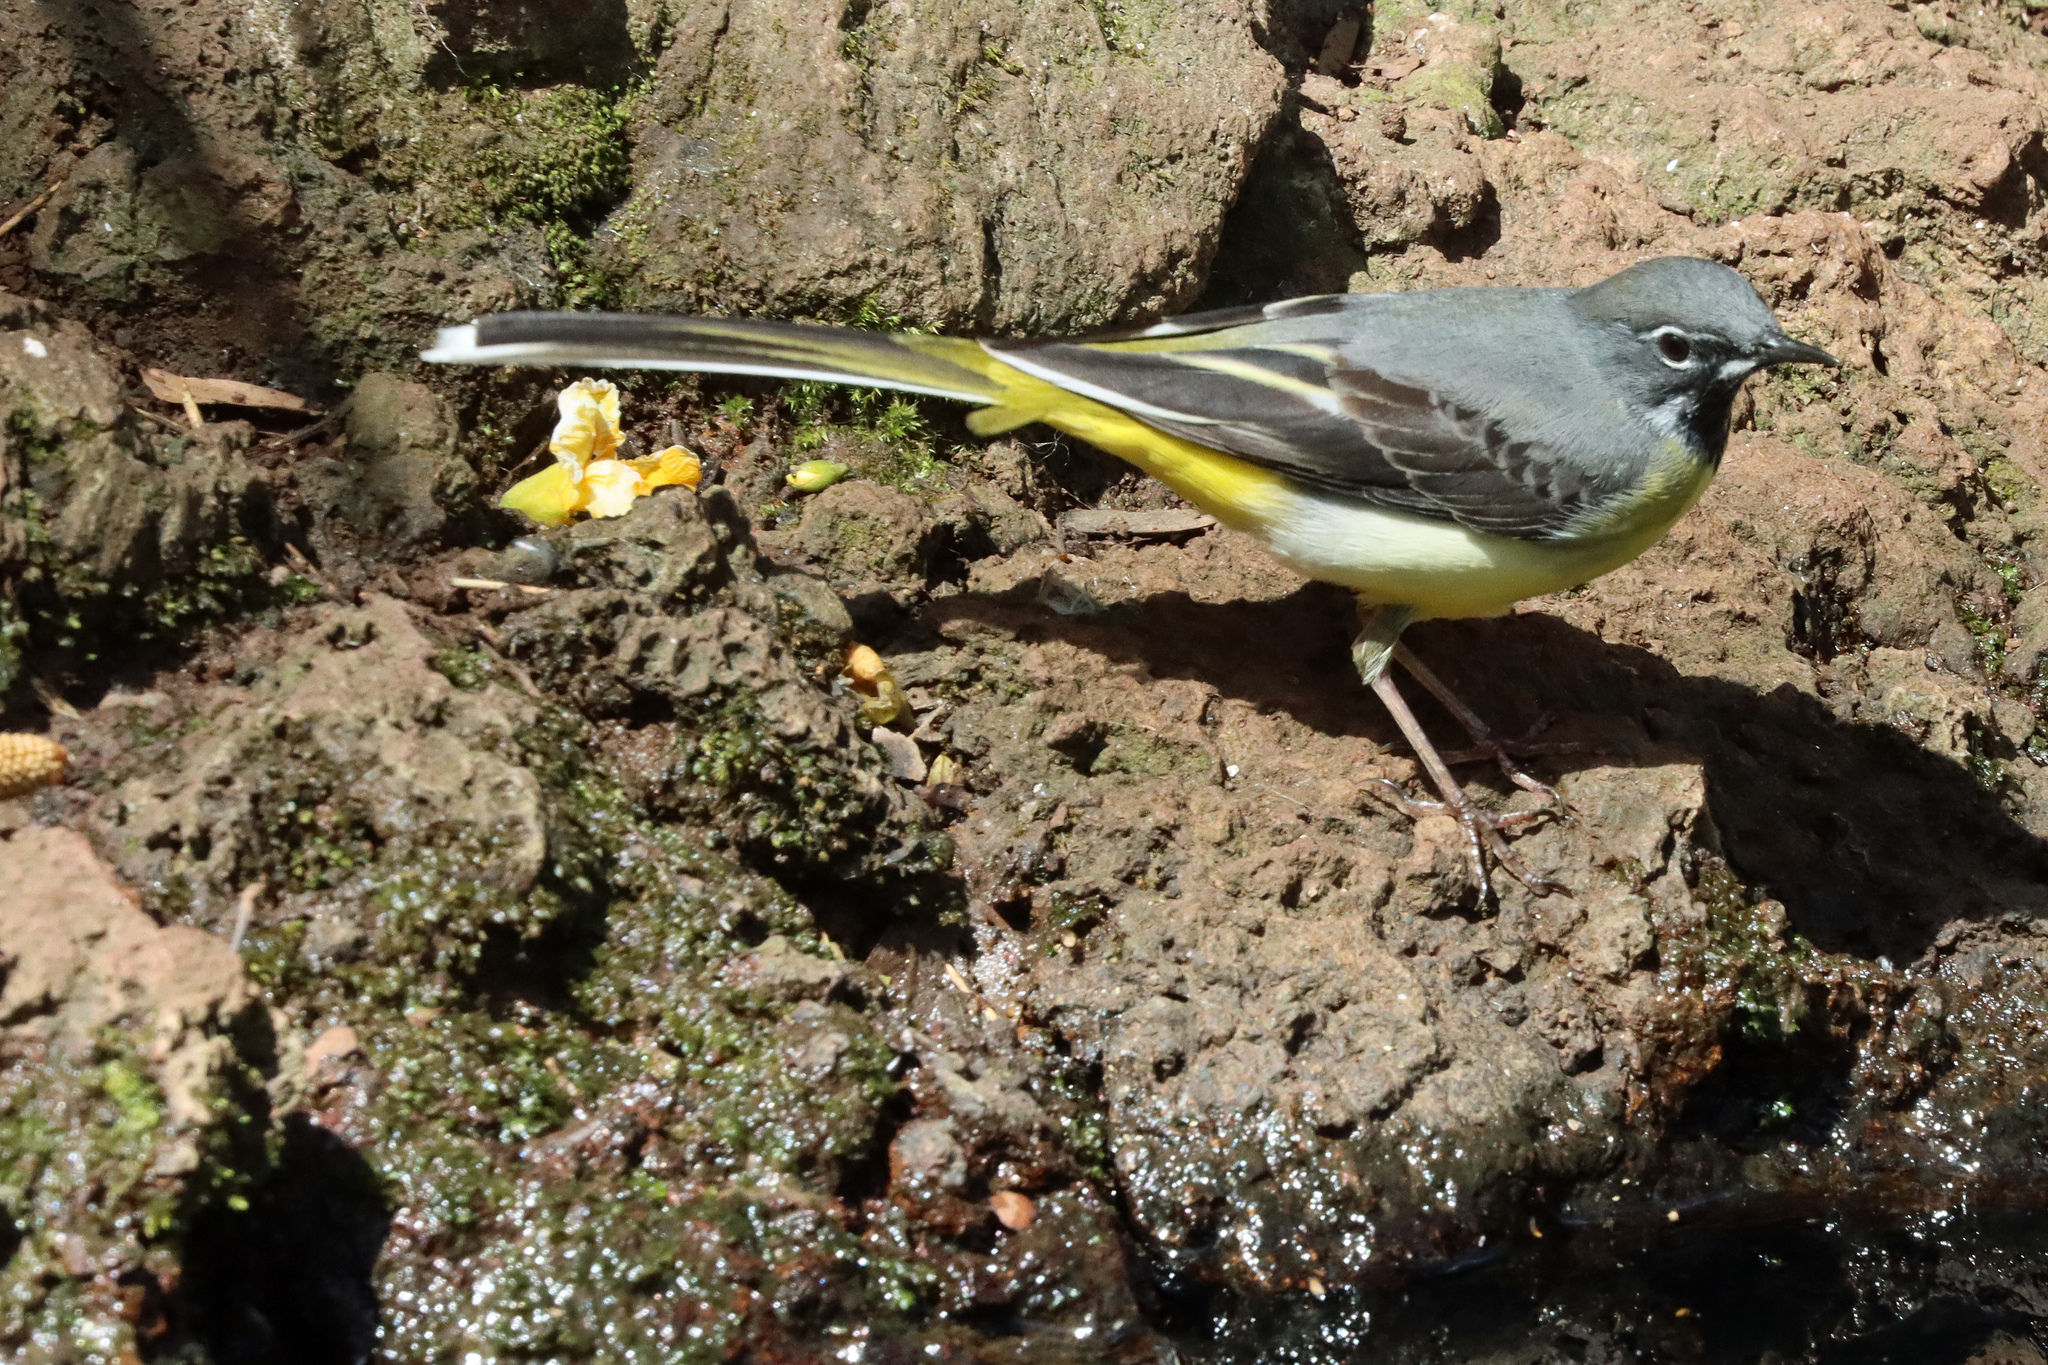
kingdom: Animalia
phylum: Chordata
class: Aves
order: Passeriformes
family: Motacillidae
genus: Motacilla
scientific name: Motacilla cinerea
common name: Grey wagtail
